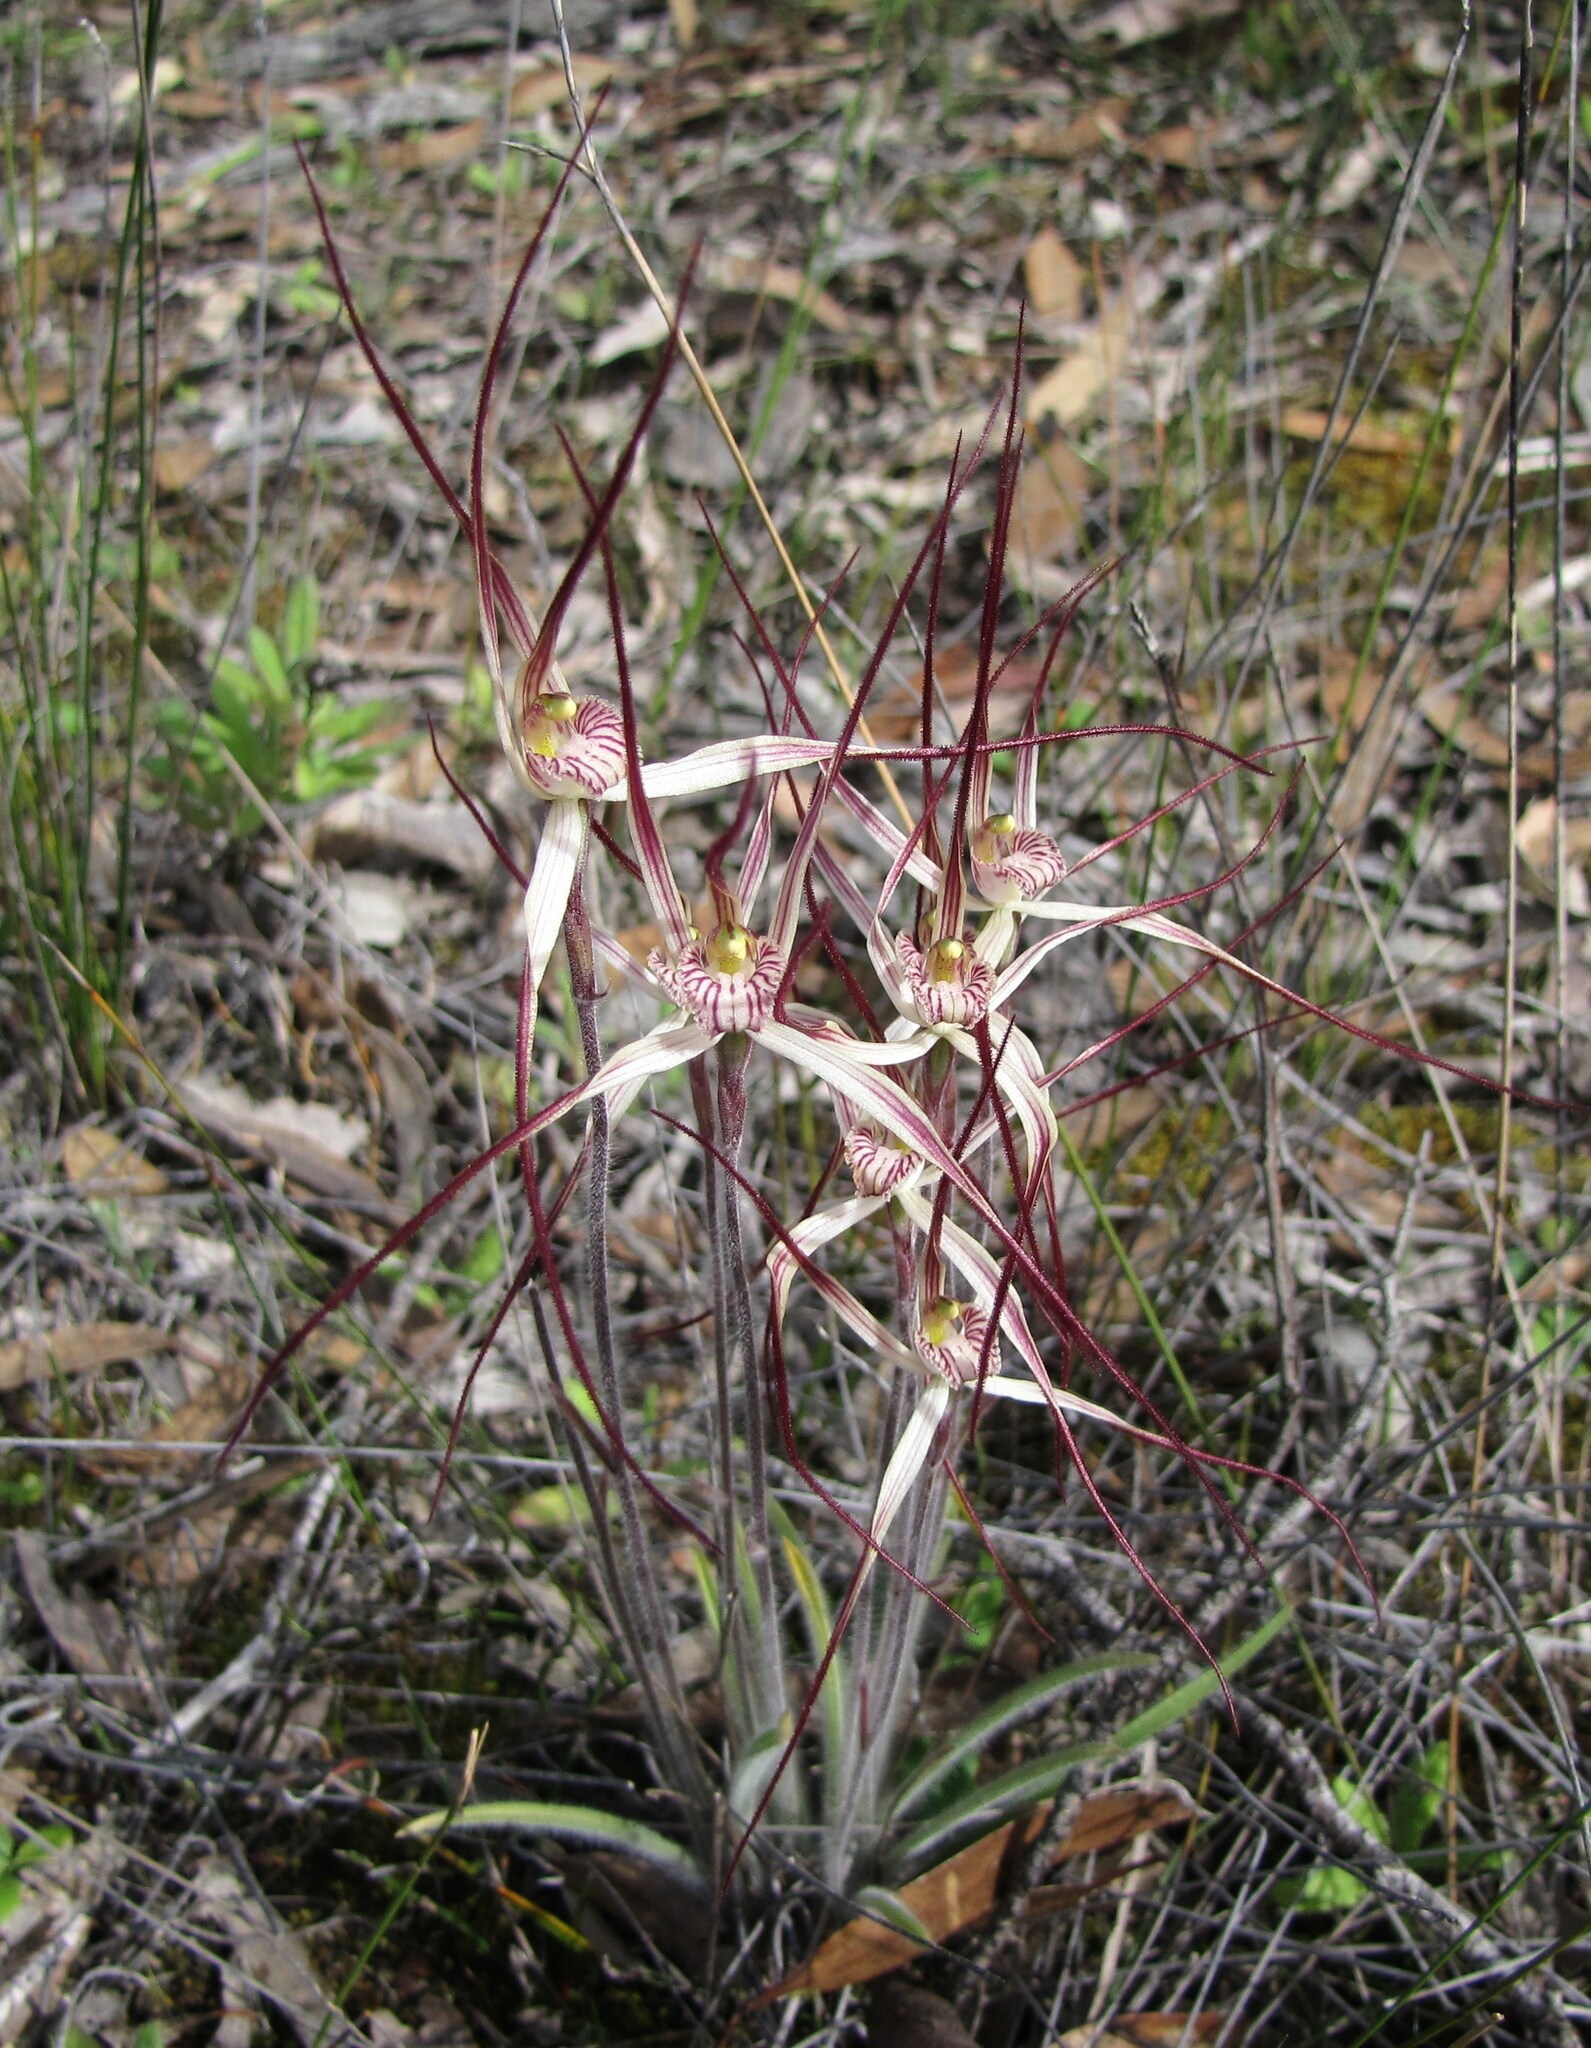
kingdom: Plantae
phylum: Tracheophyta
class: Liliopsida
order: Asparagales
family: Orchidaceae
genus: Caladenia
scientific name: Caladenia polychroma
